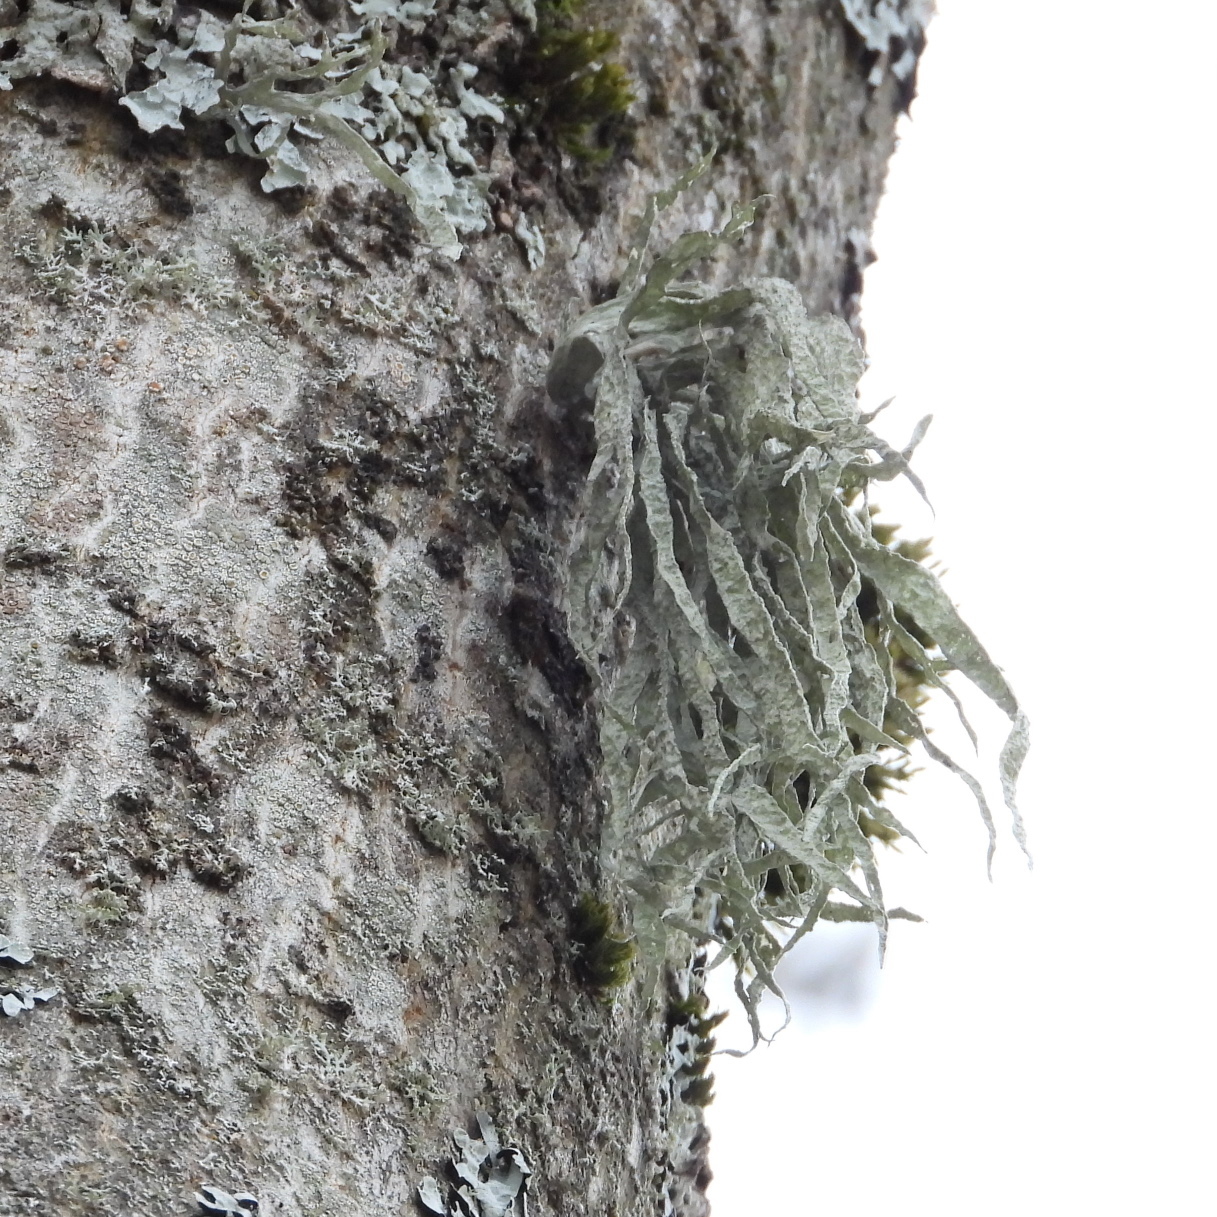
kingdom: Fungi
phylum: Ascomycota
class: Lecanoromycetes
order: Lecanorales
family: Ramalinaceae
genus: Ramalina
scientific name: Ramalina fraxinea
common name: Cartilage lichen
